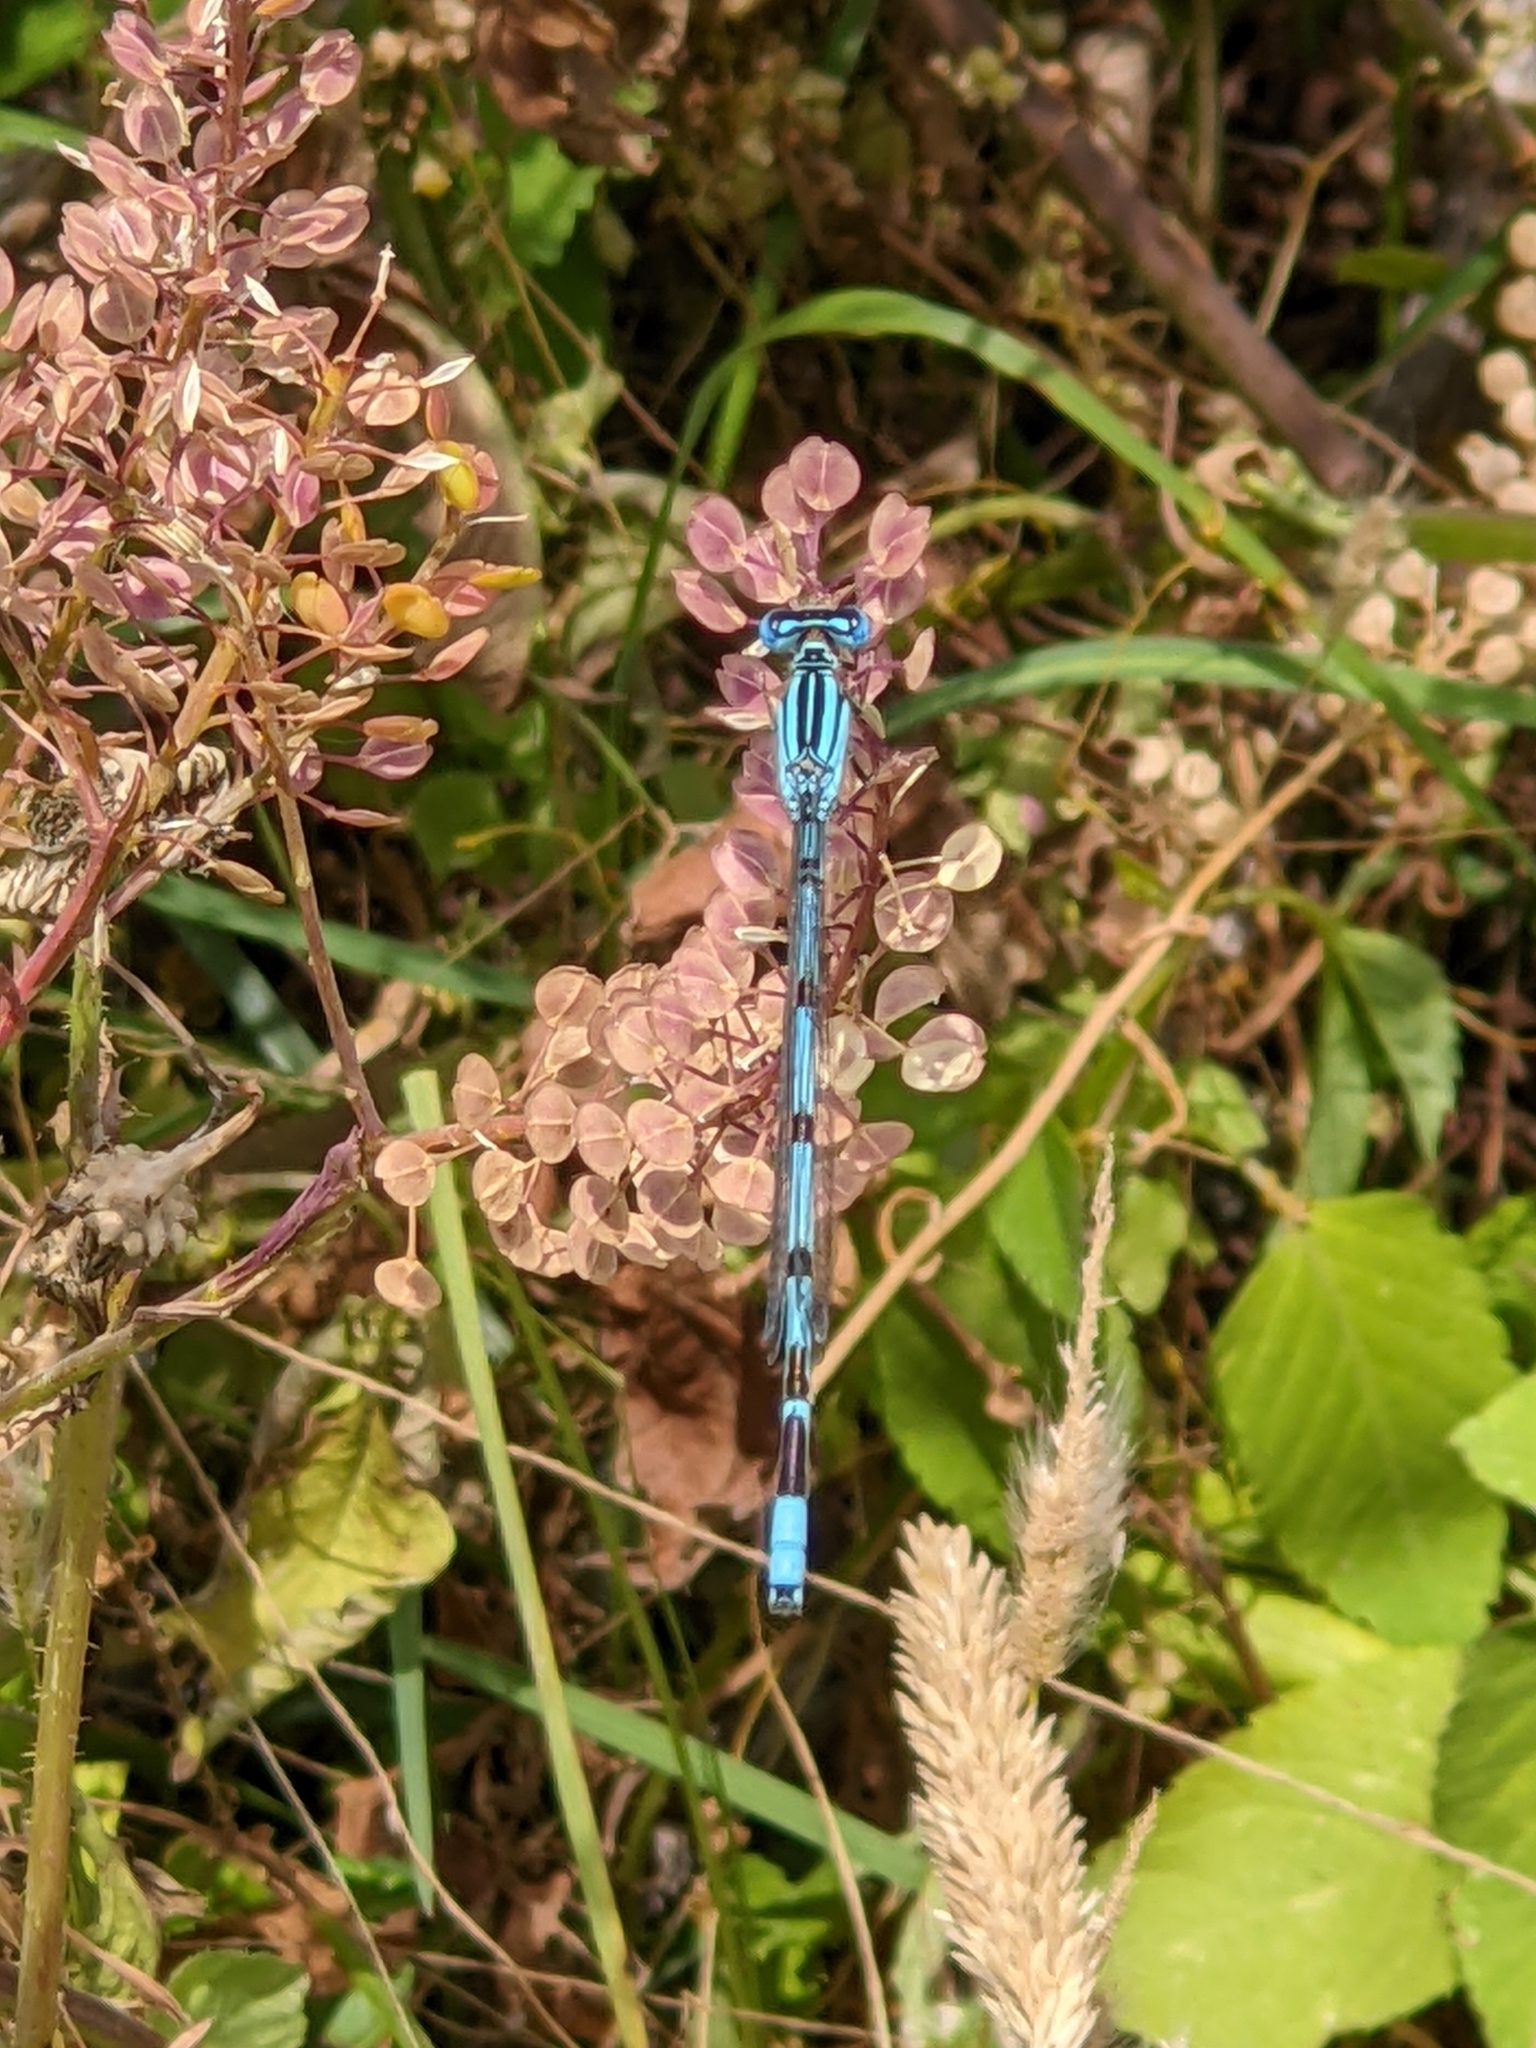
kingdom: Animalia
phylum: Arthropoda
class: Insecta
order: Odonata
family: Coenagrionidae
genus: Enallagma
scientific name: Enallagma durum
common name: Big bluet
